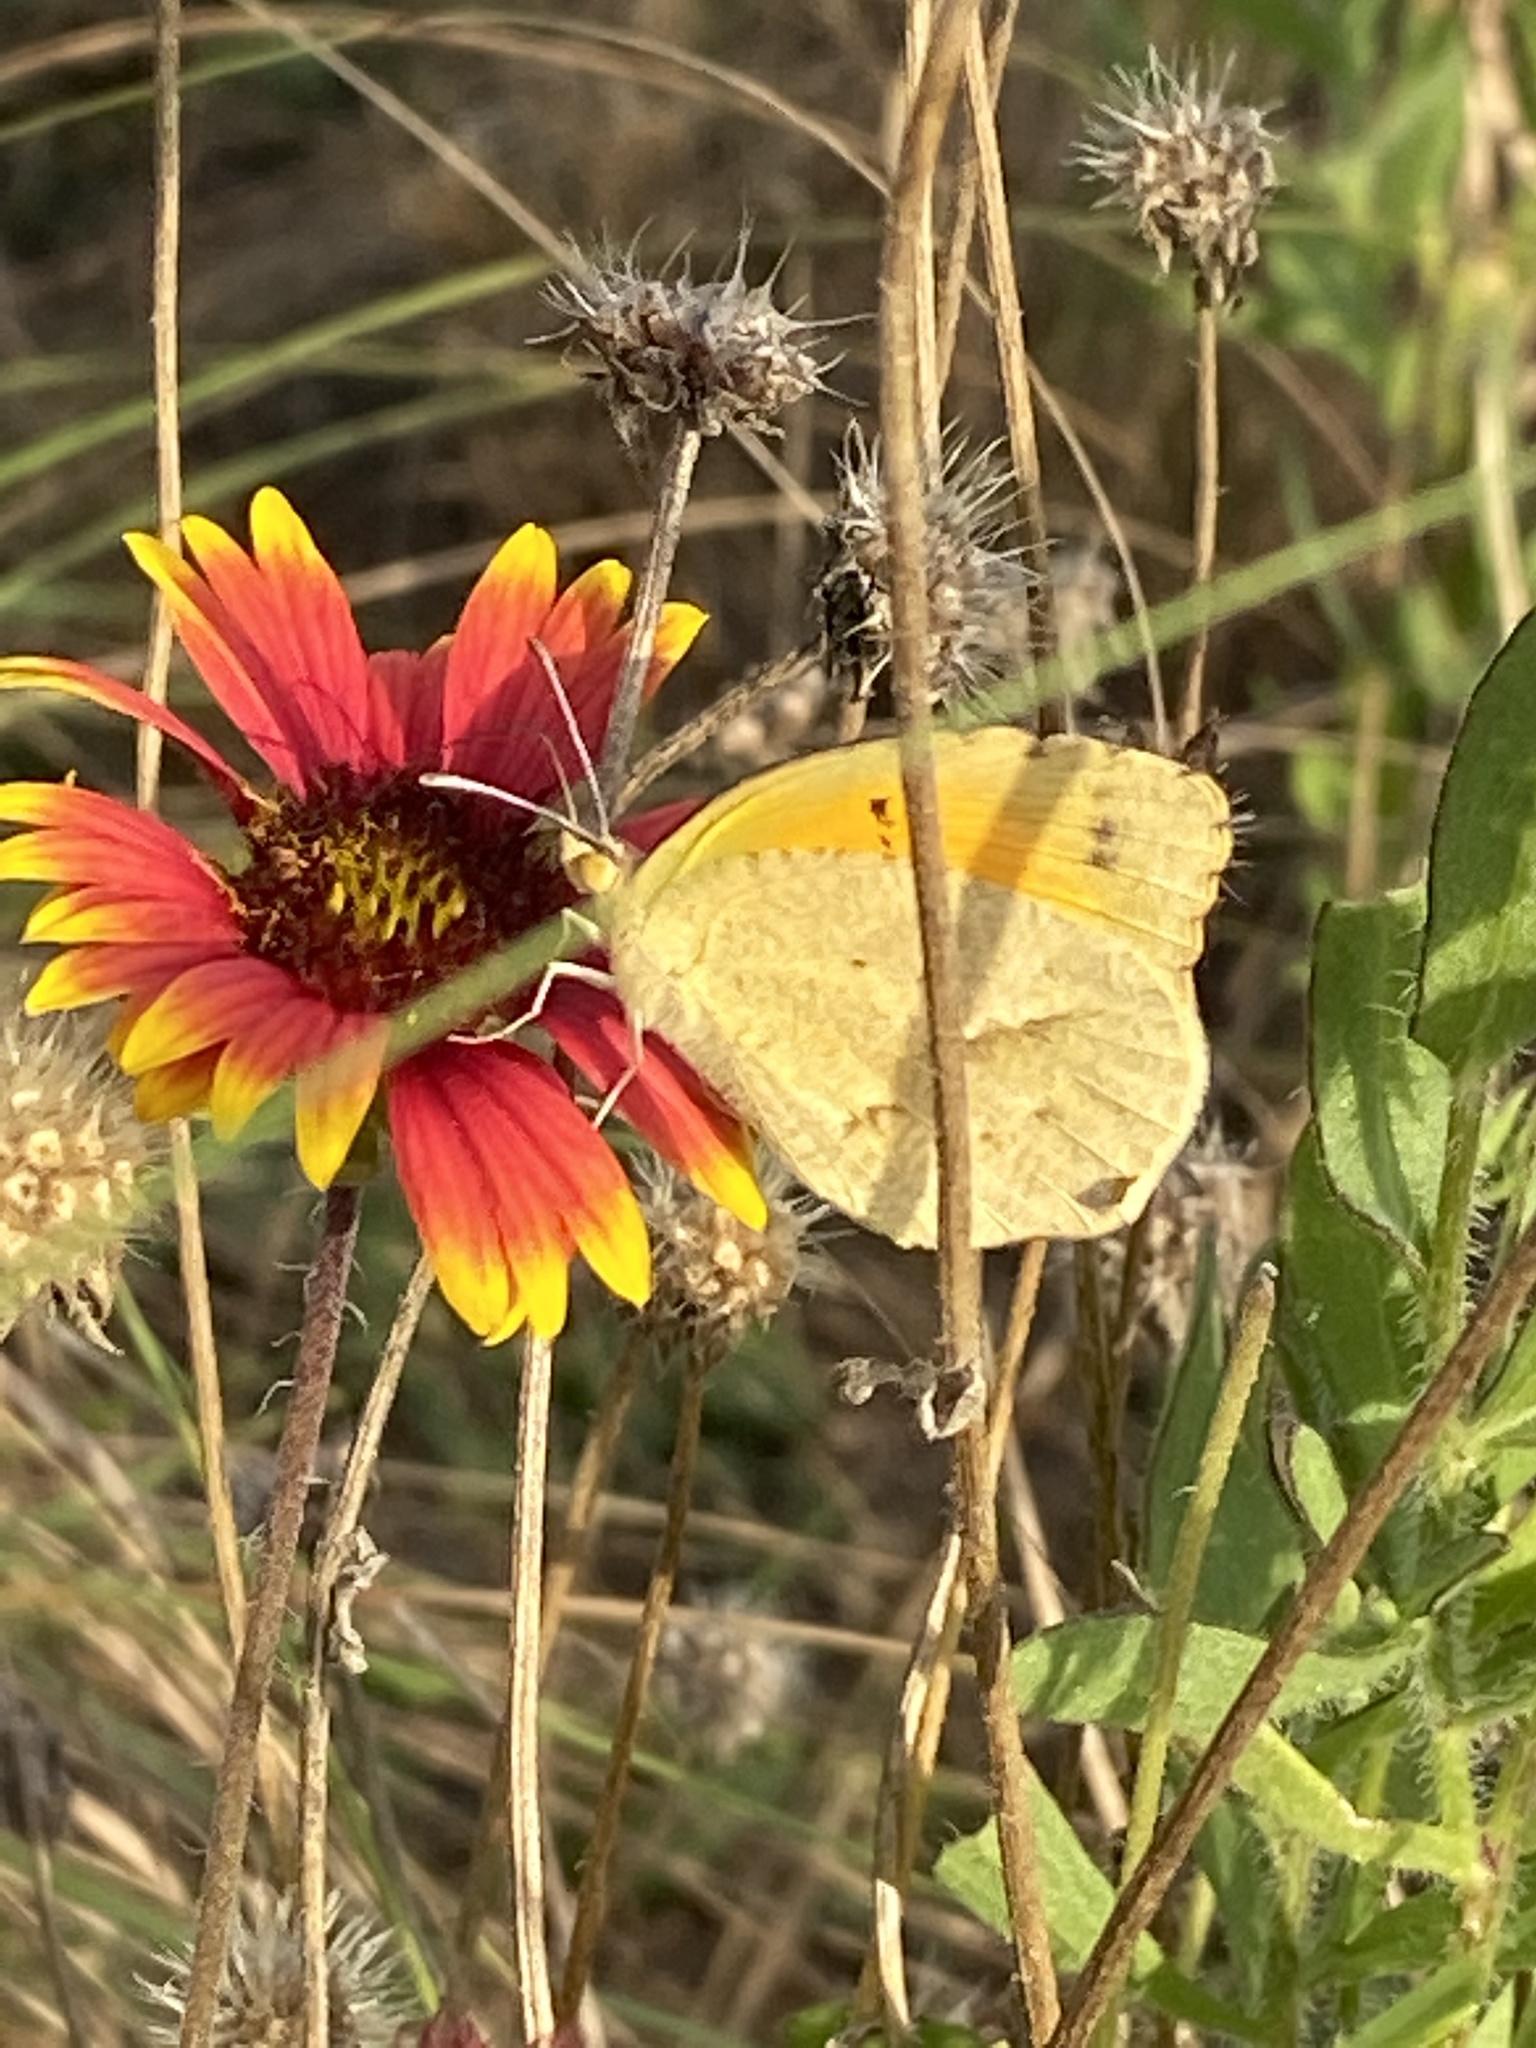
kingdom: Animalia
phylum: Arthropoda
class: Insecta
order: Lepidoptera
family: Pieridae
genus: Abaeis
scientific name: Abaeis nicippe
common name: Sleepy orange
